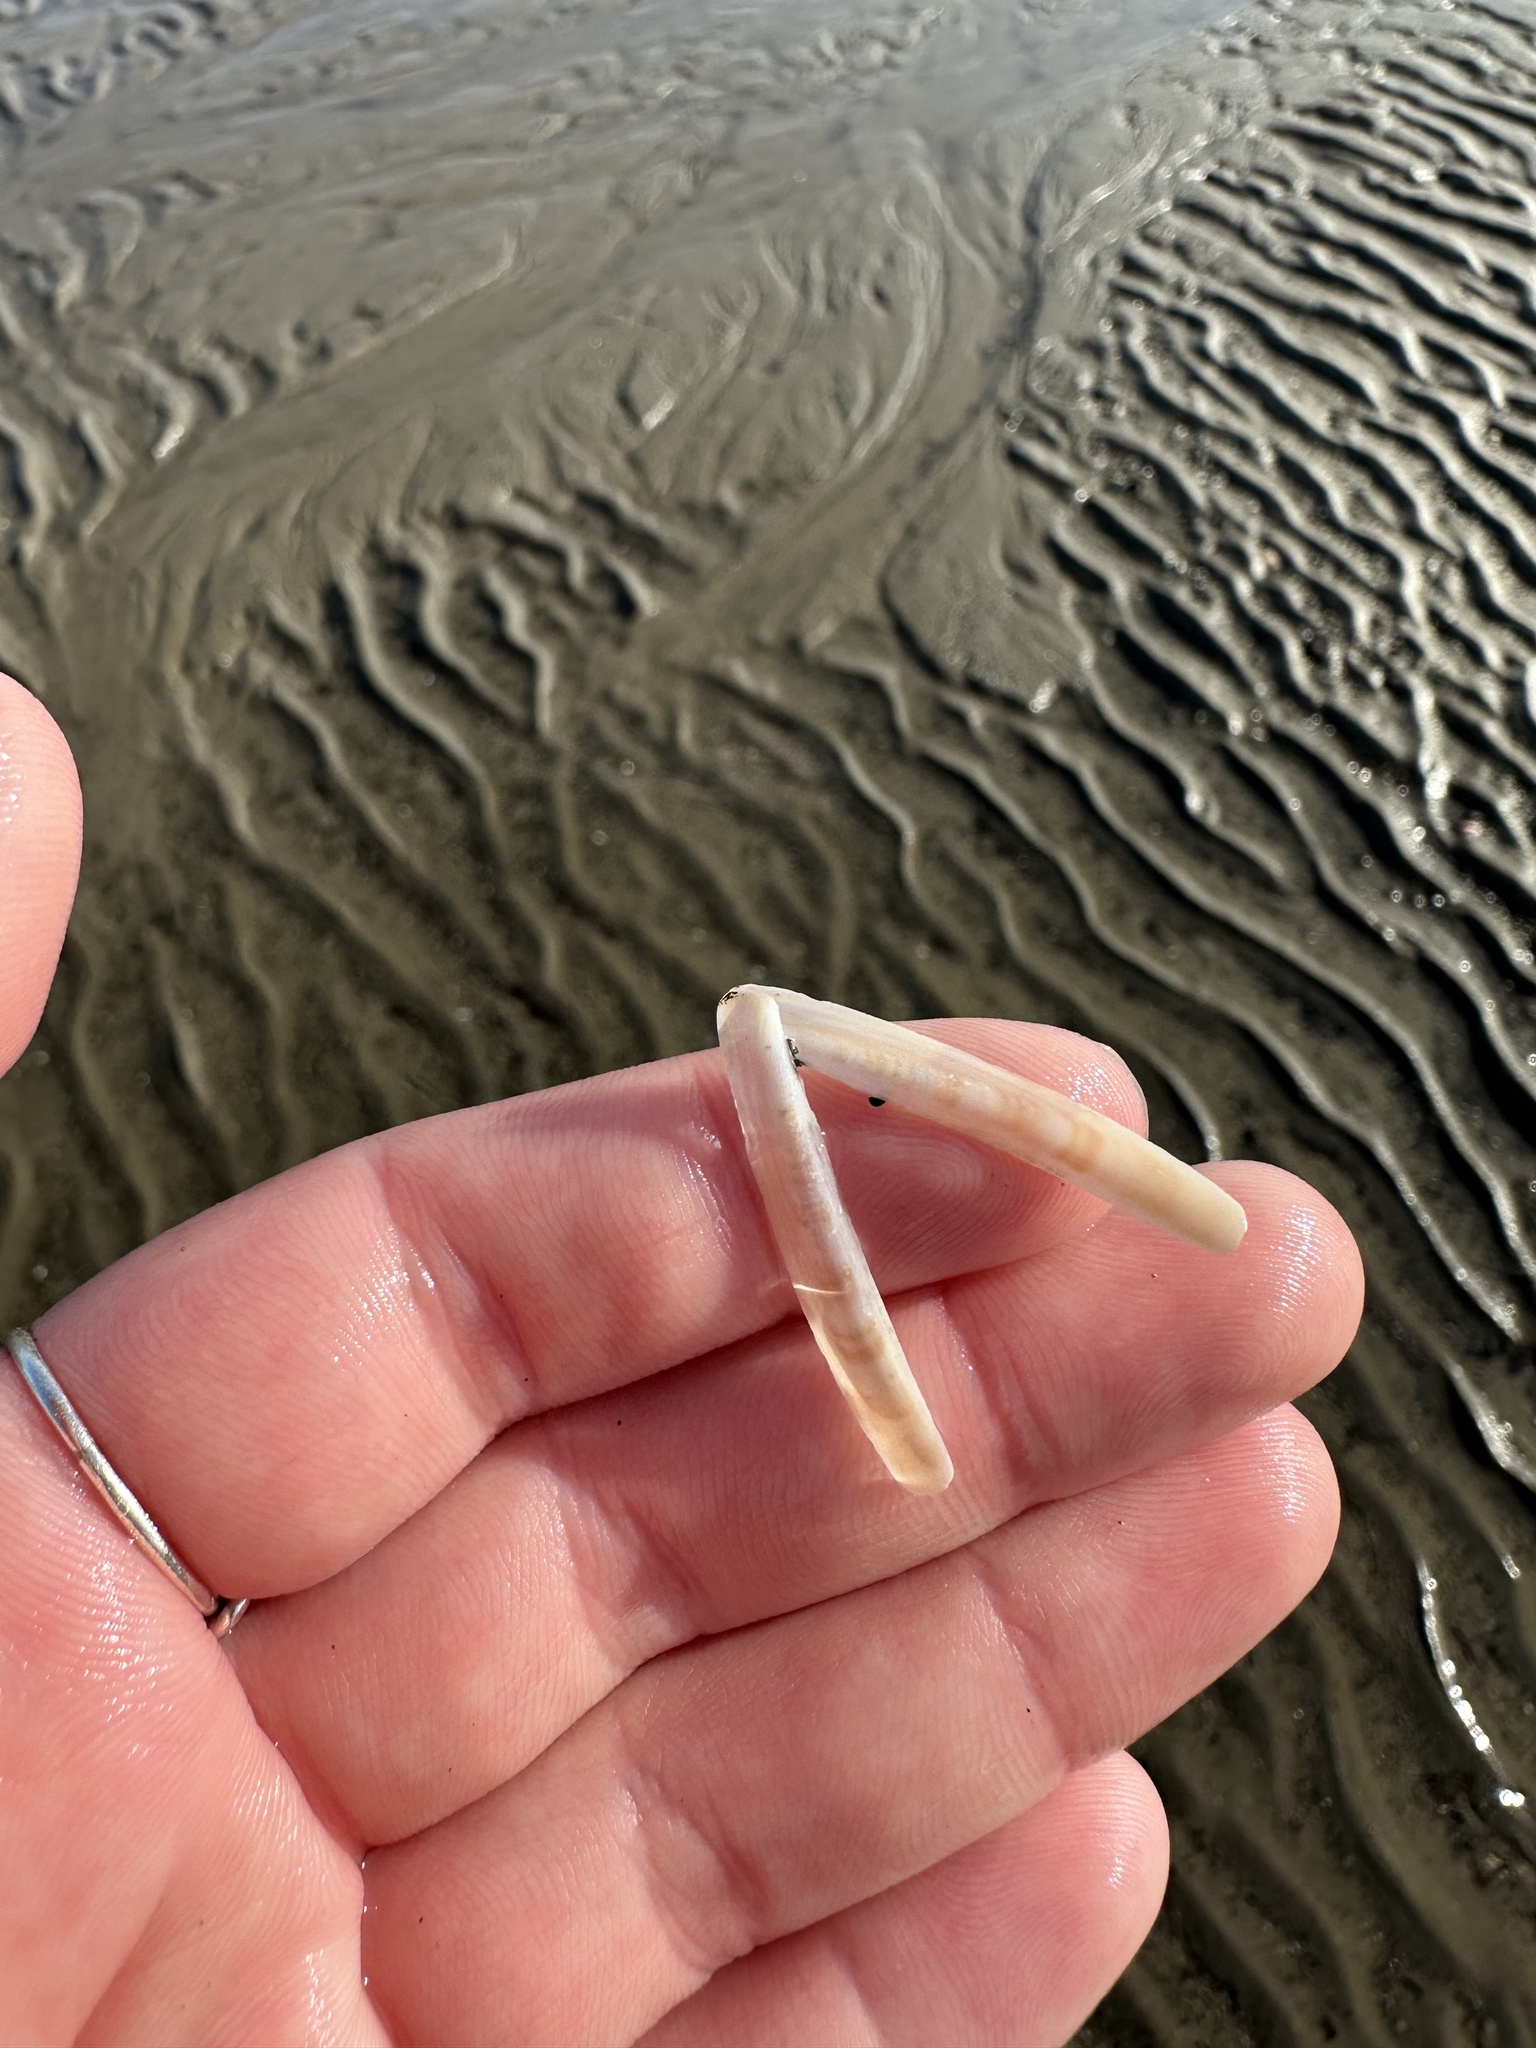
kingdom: Animalia
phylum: Mollusca
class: Bivalvia
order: Adapedonta
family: Pharidae
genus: Ensis
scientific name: Ensis leei
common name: American jack knife clam
